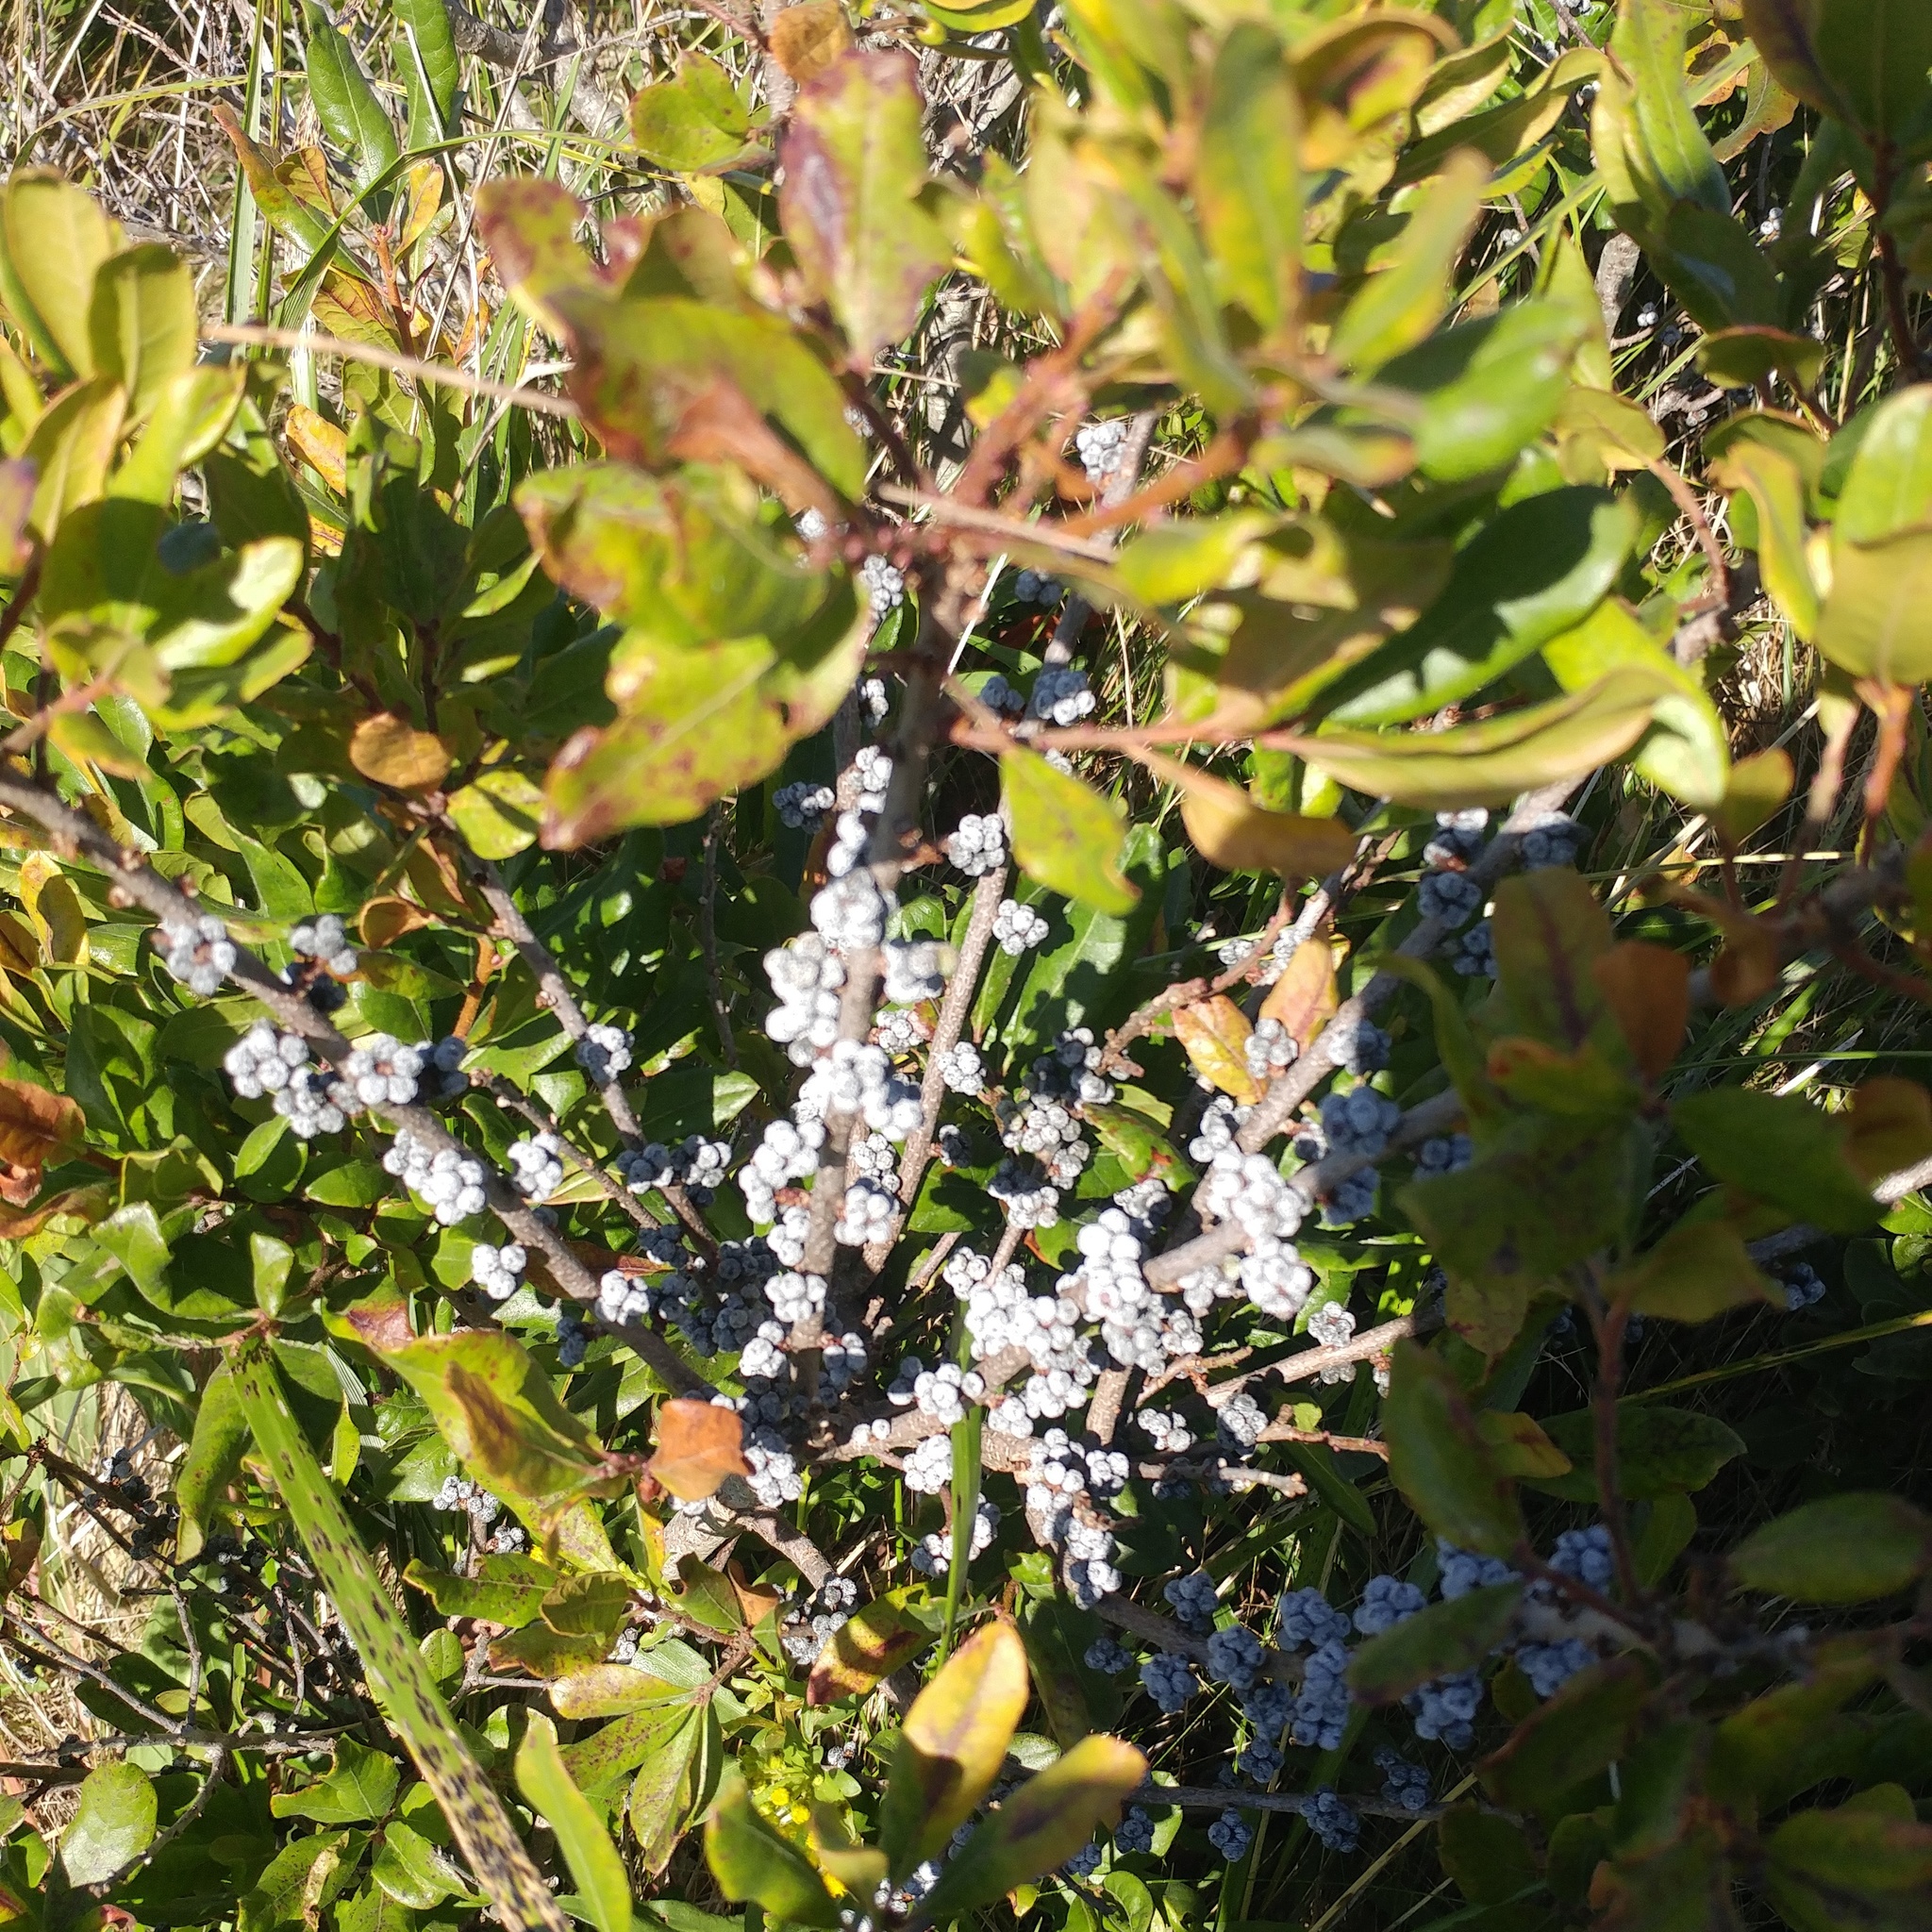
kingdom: Plantae
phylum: Tracheophyta
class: Magnoliopsida
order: Fagales
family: Myricaceae
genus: Morella
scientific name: Morella pensylvanica
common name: Northern bayberry
